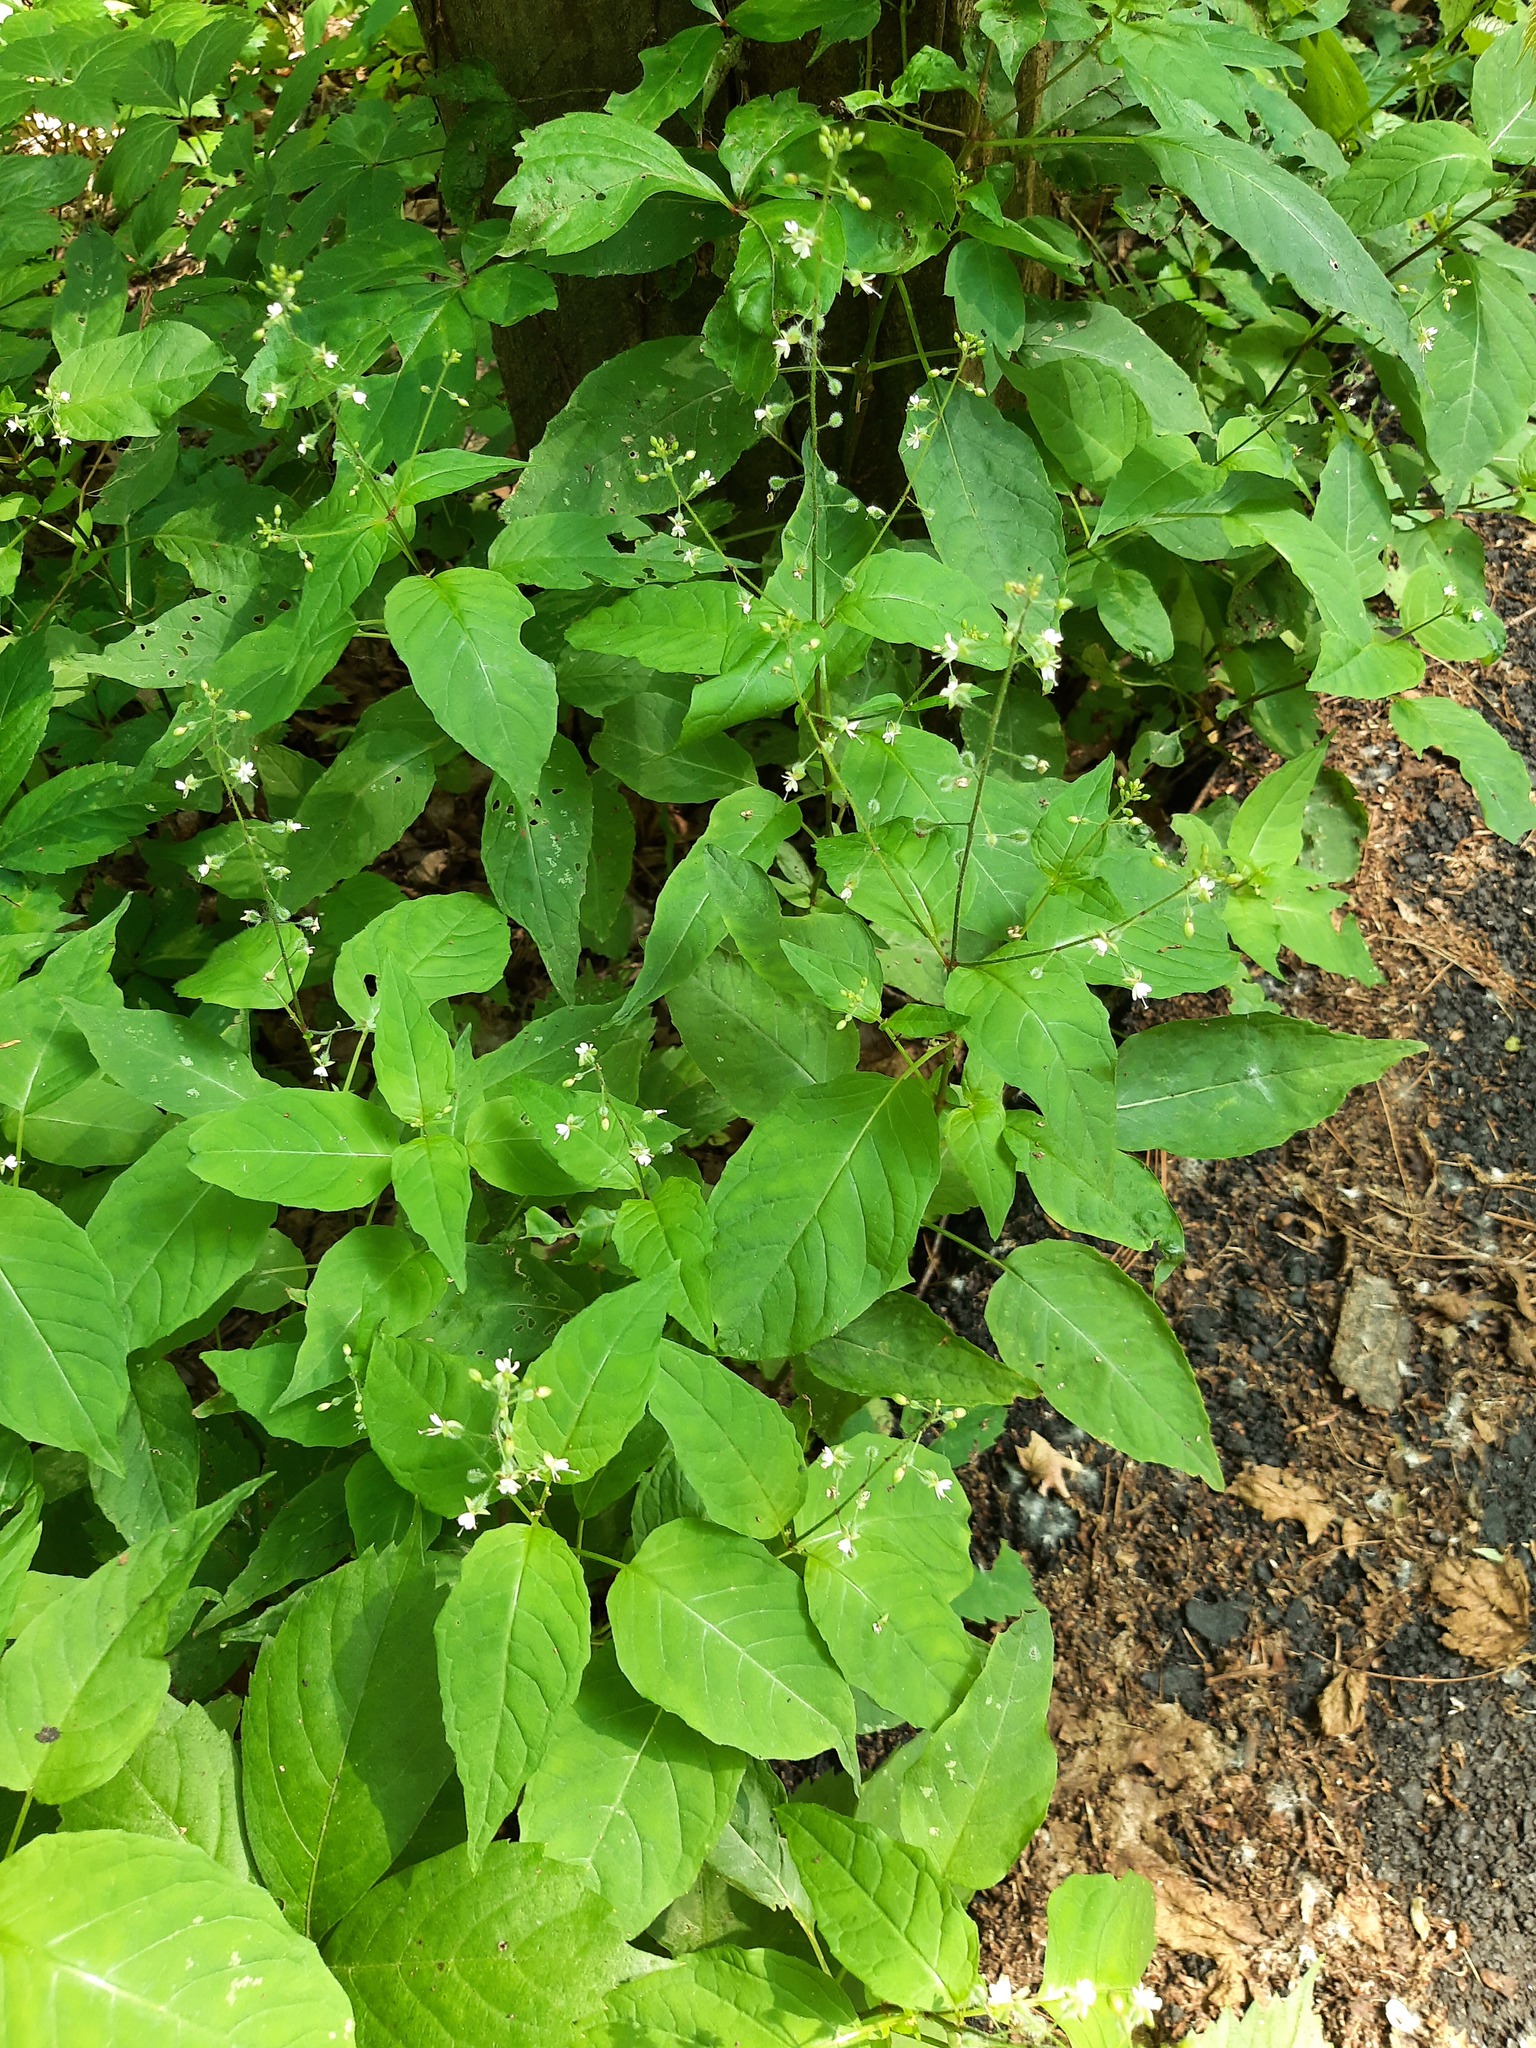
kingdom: Plantae
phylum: Tracheophyta
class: Magnoliopsida
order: Myrtales
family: Onagraceae
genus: Circaea
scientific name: Circaea canadensis
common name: Broad-leaved enchanter's nightshade
